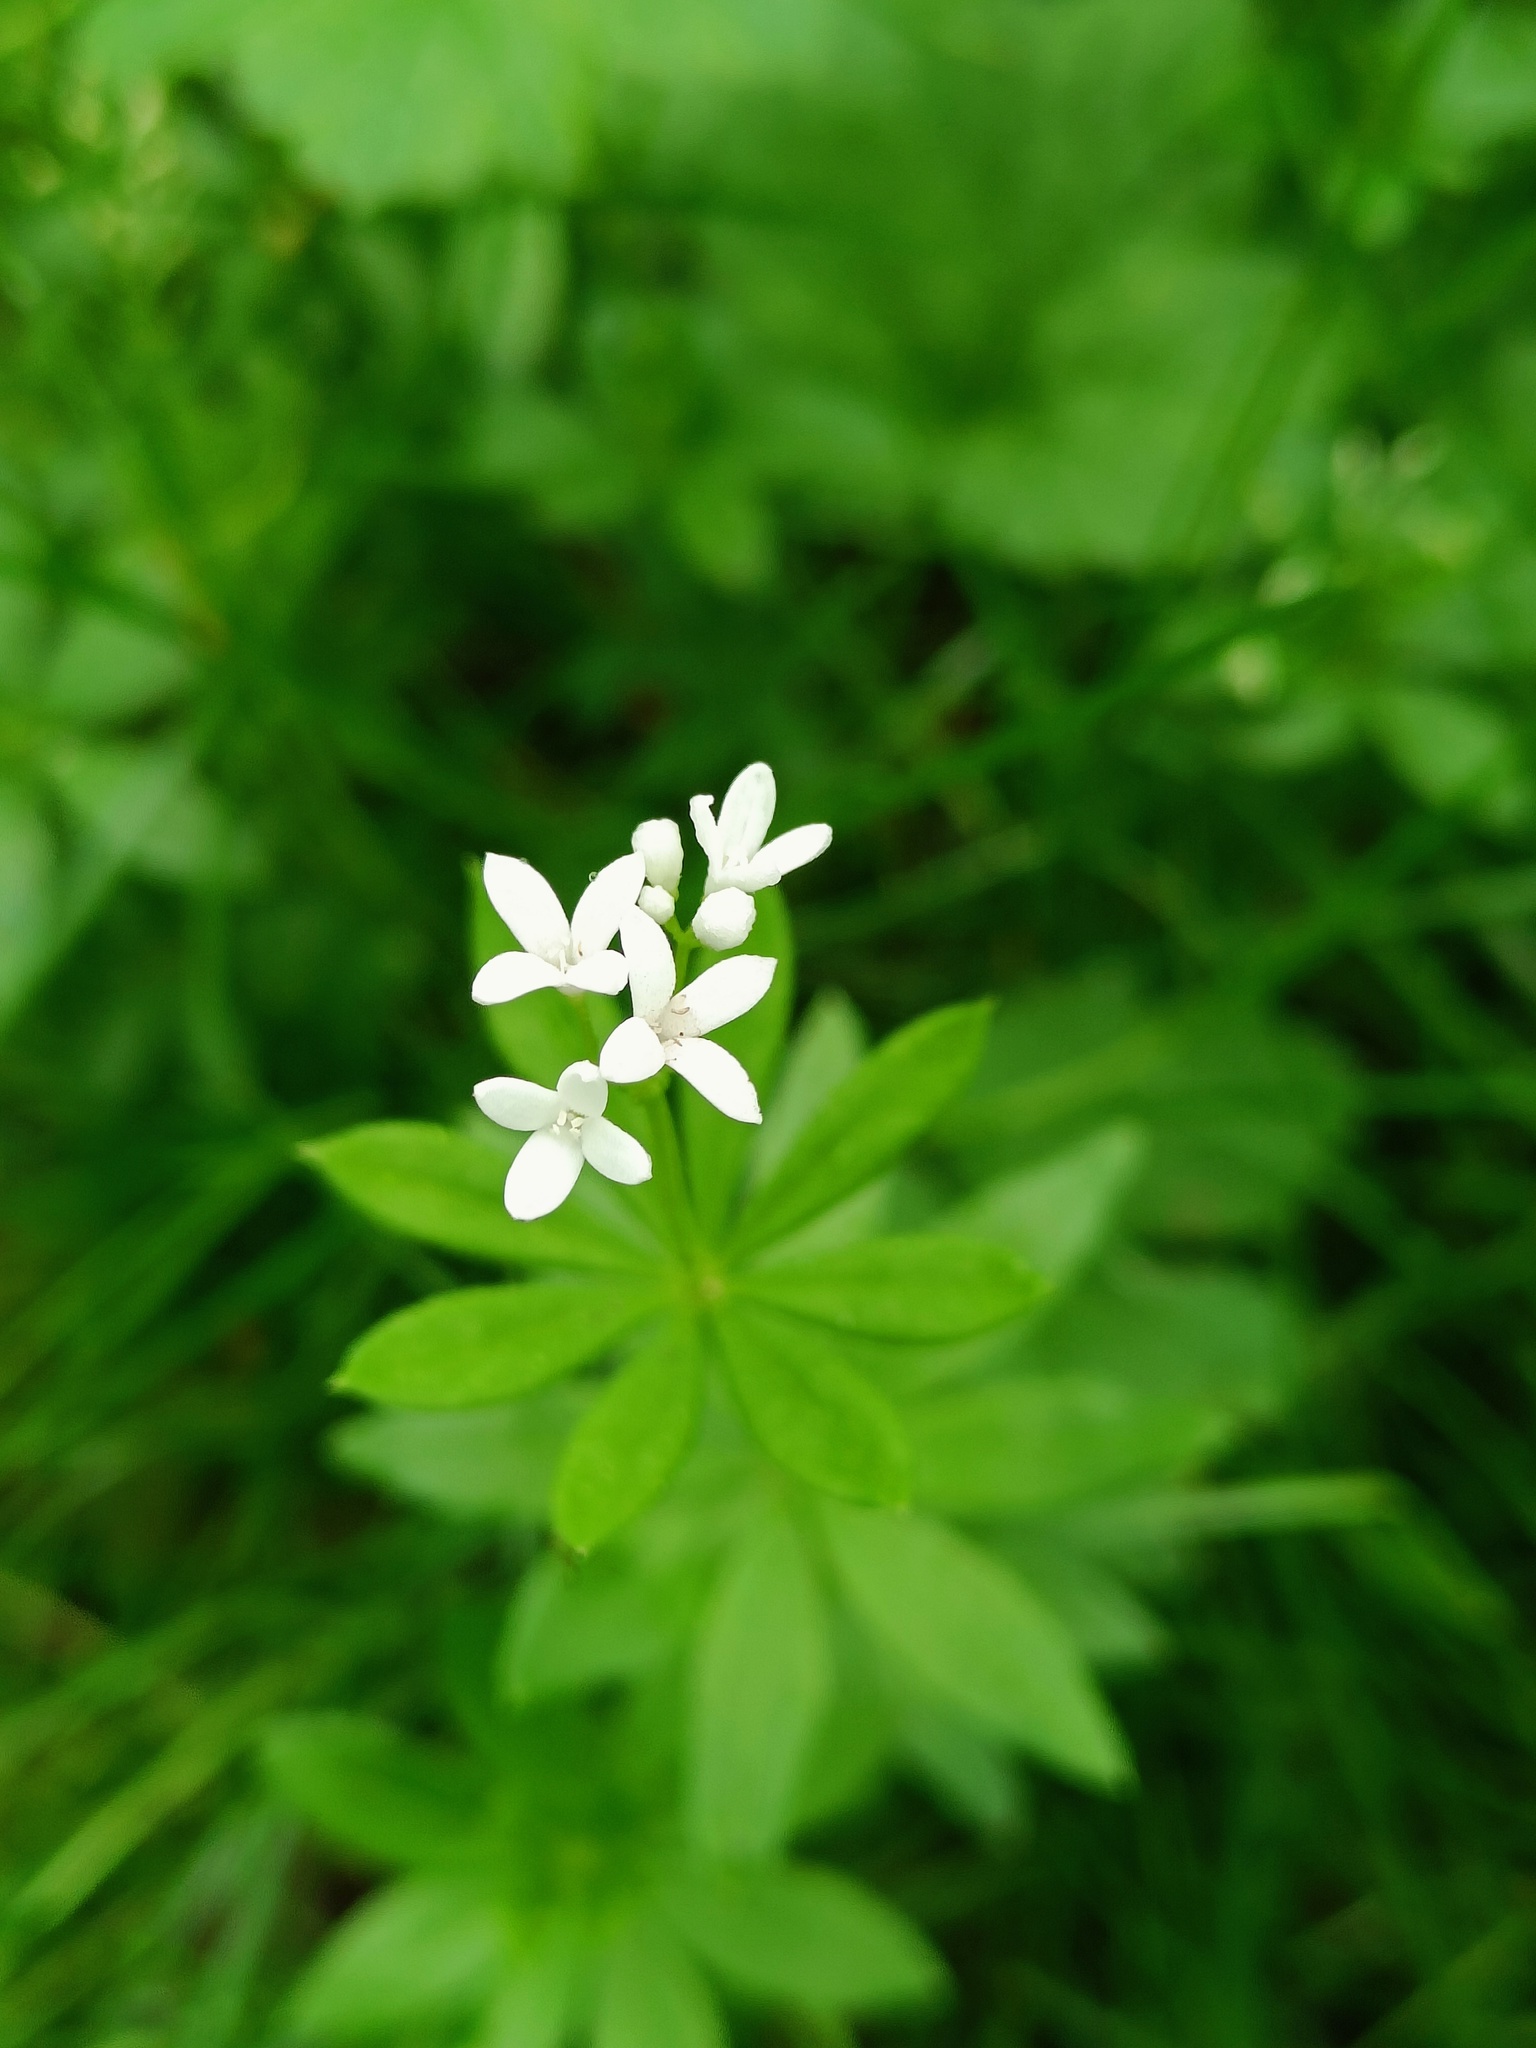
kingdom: Plantae
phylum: Tracheophyta
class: Magnoliopsida
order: Gentianales
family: Rubiaceae
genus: Galium
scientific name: Galium odoratum
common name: Sweet woodruff
